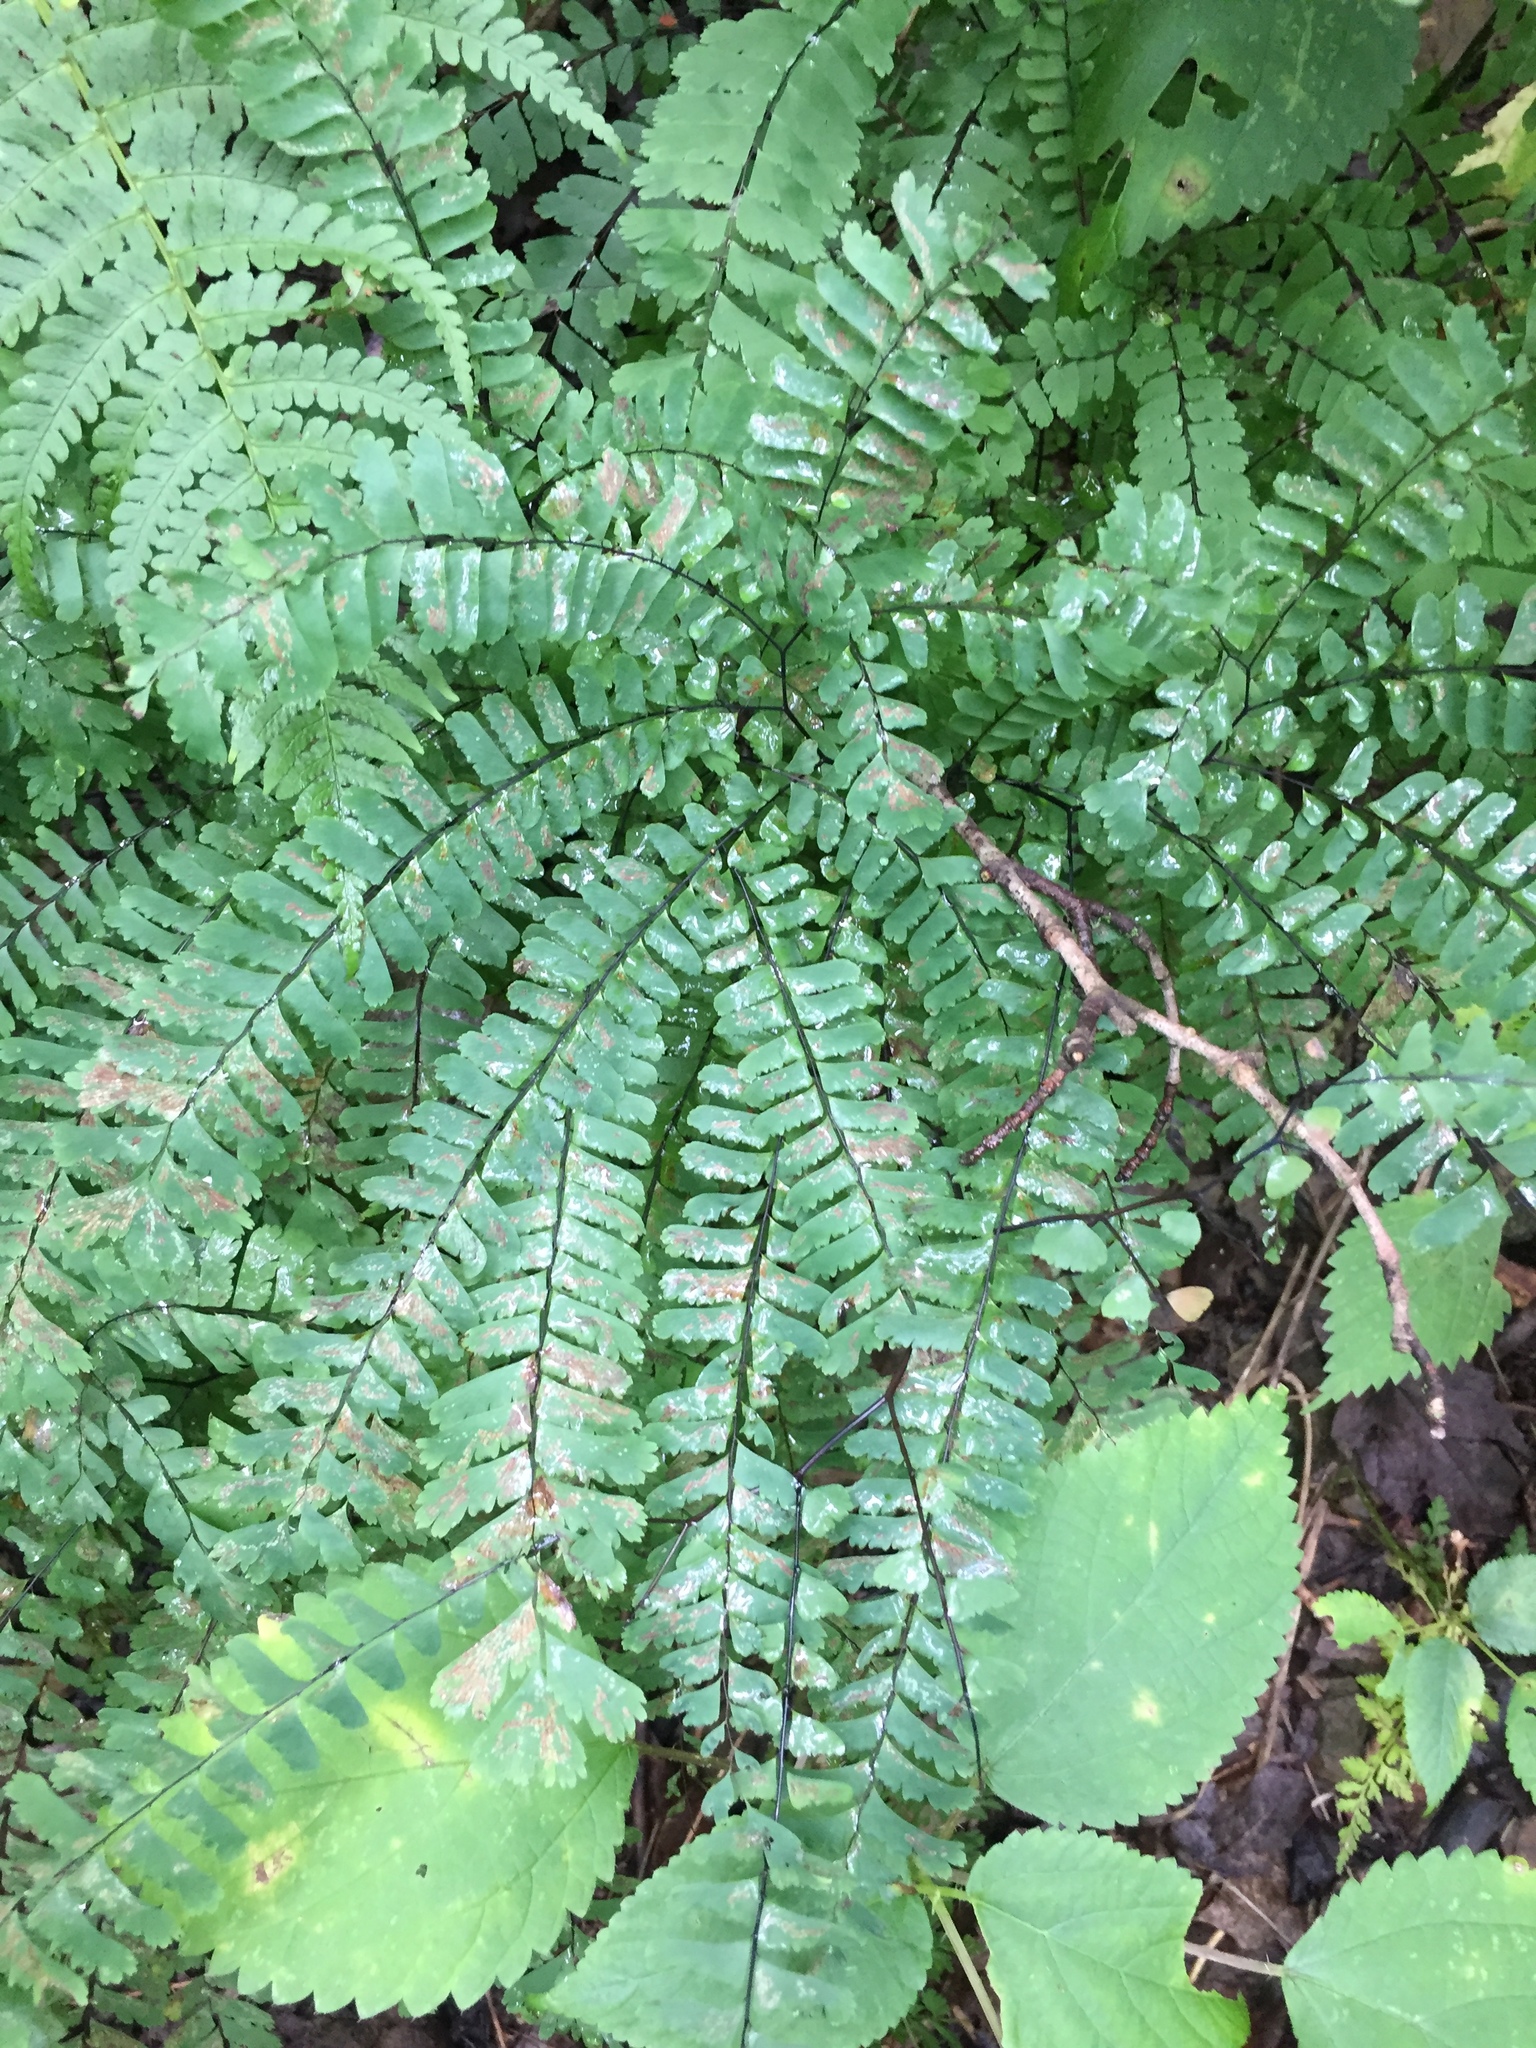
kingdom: Plantae
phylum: Tracheophyta
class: Polypodiopsida
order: Polypodiales
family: Pteridaceae
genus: Adiantum
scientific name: Adiantum pedatum
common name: Five-finger fern
